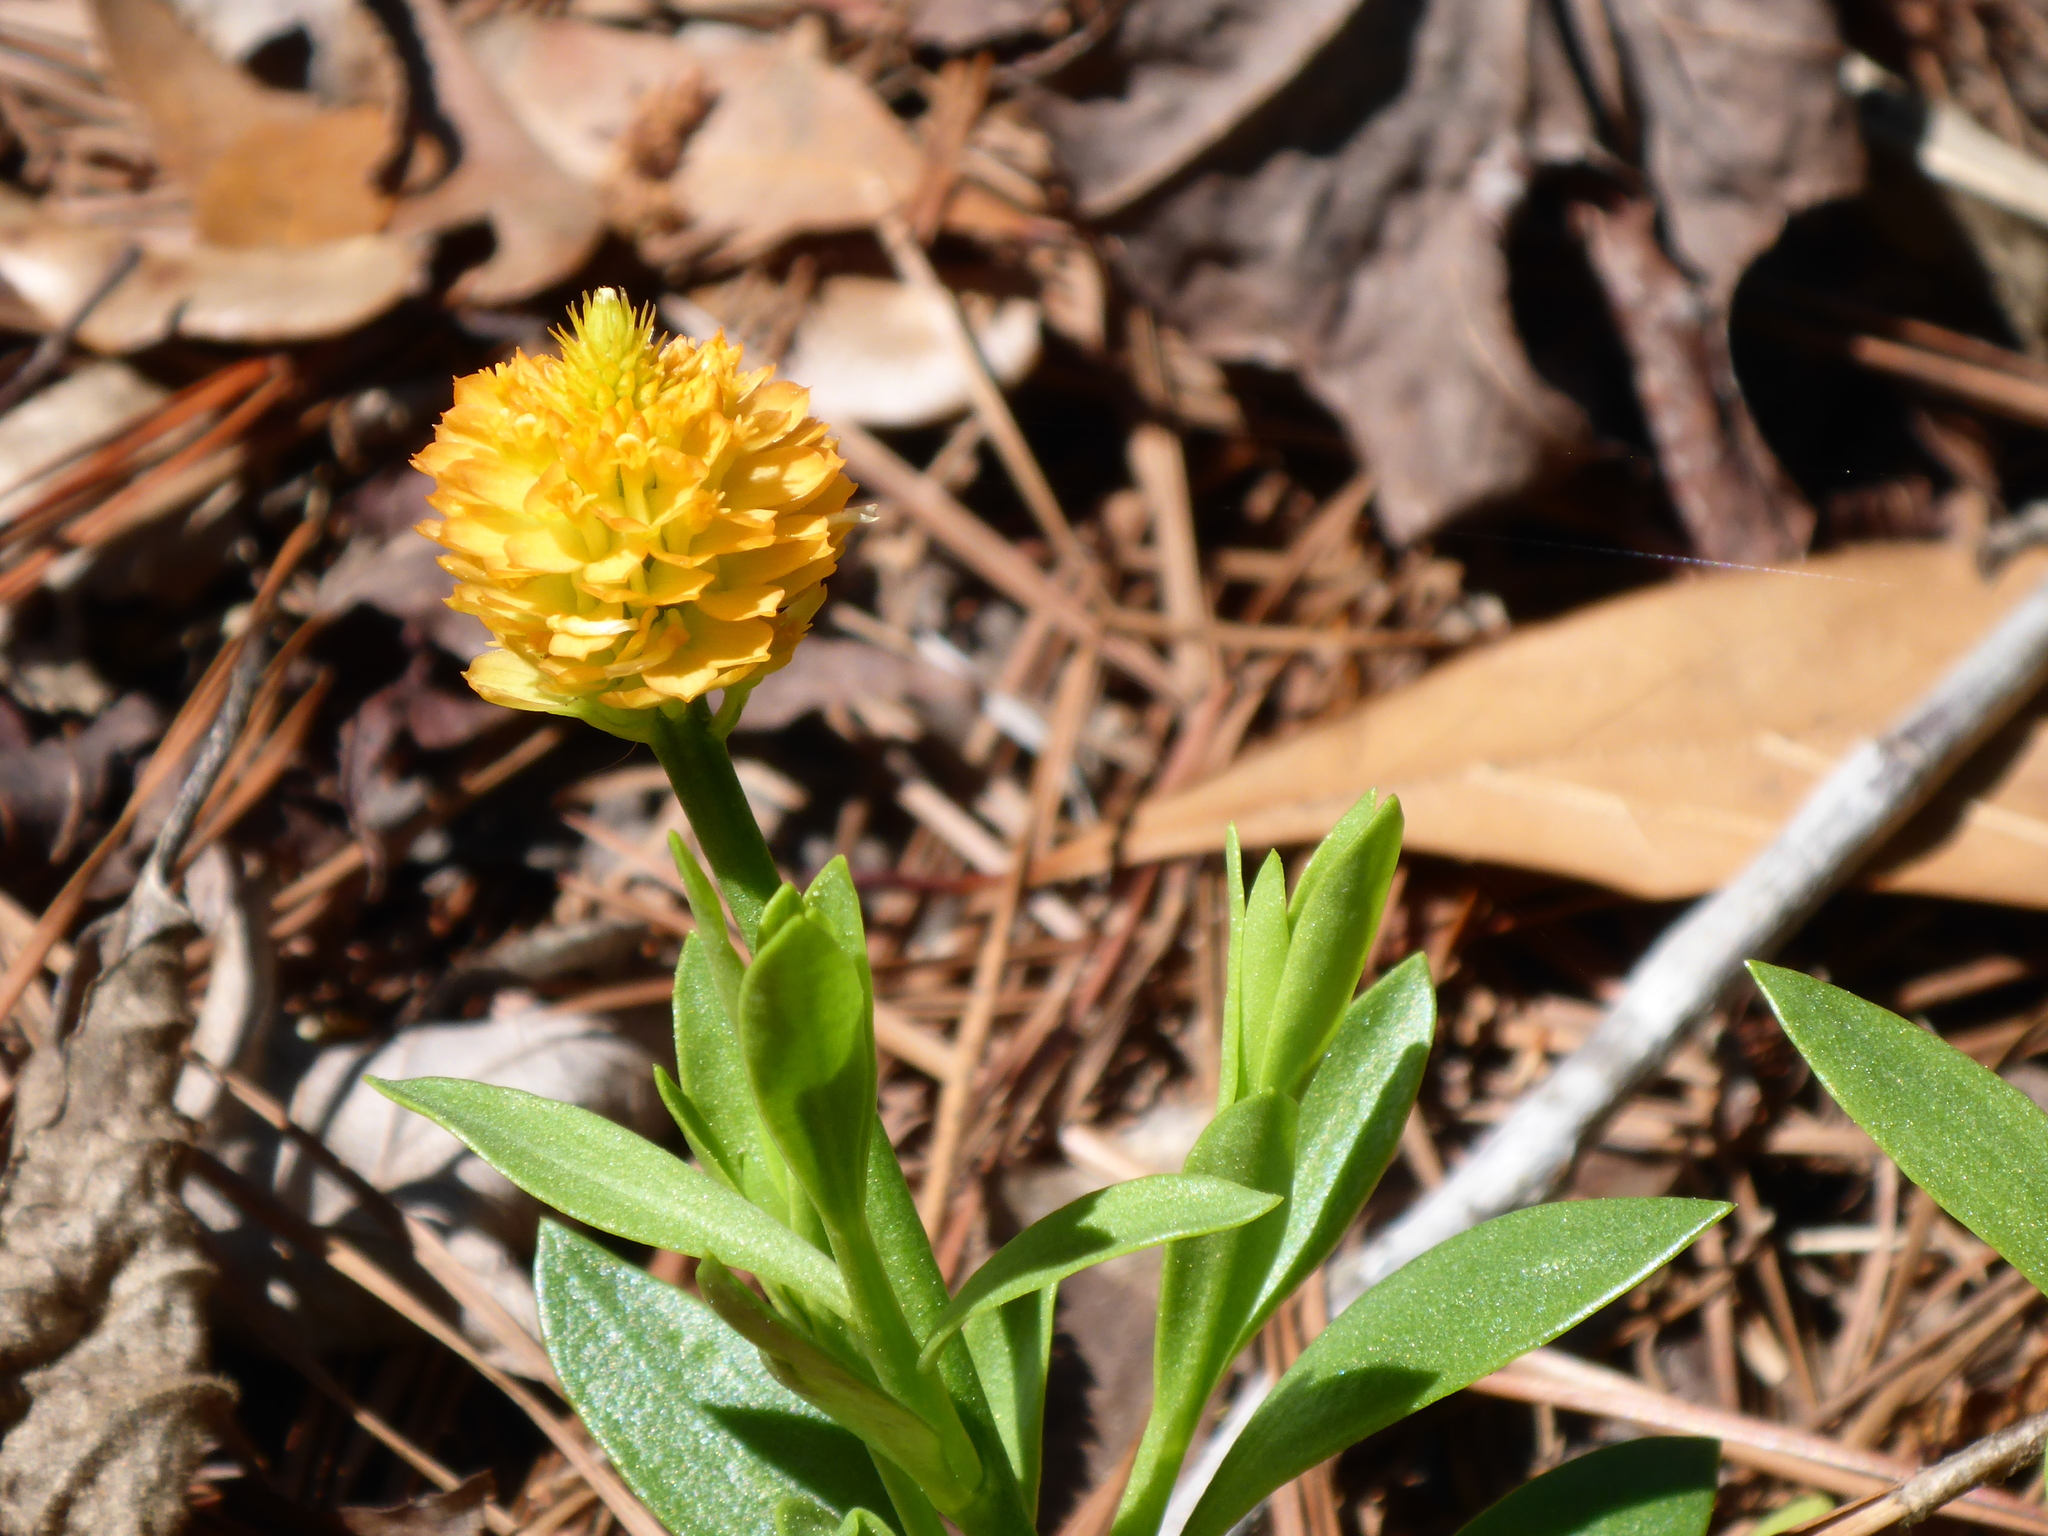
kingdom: Plantae
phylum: Tracheophyta
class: Magnoliopsida
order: Fabales
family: Polygalaceae
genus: Polygala
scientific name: Polygala nana
